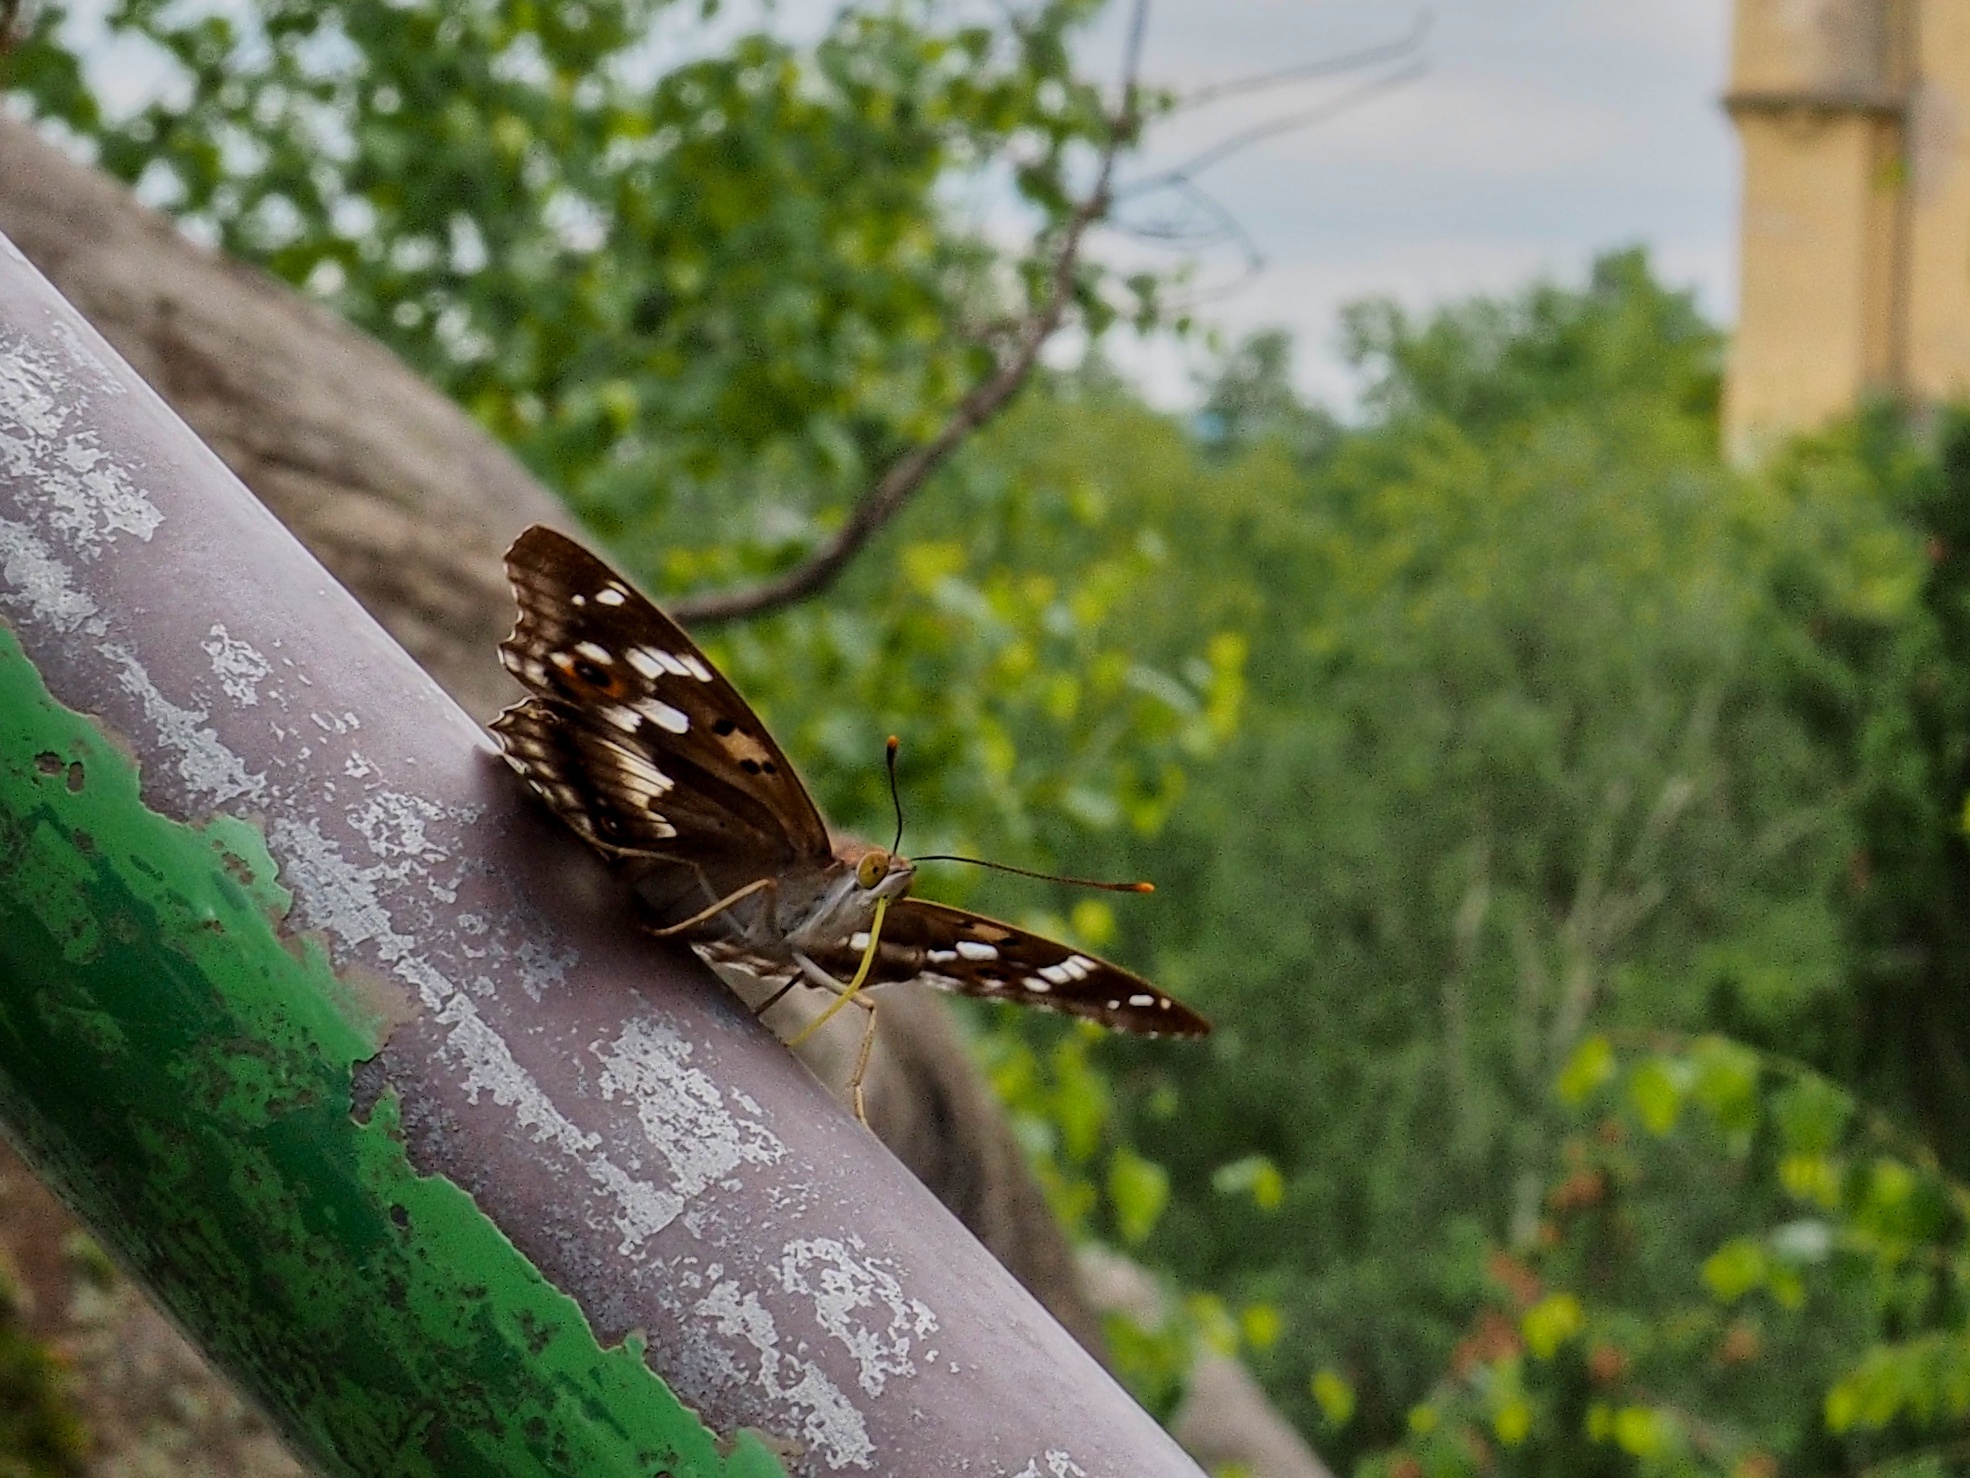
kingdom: Animalia
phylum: Arthropoda
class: Insecta
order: Lepidoptera
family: Nymphalidae
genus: Apatura
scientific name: Apatura ilia
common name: Lesser purple emperor
